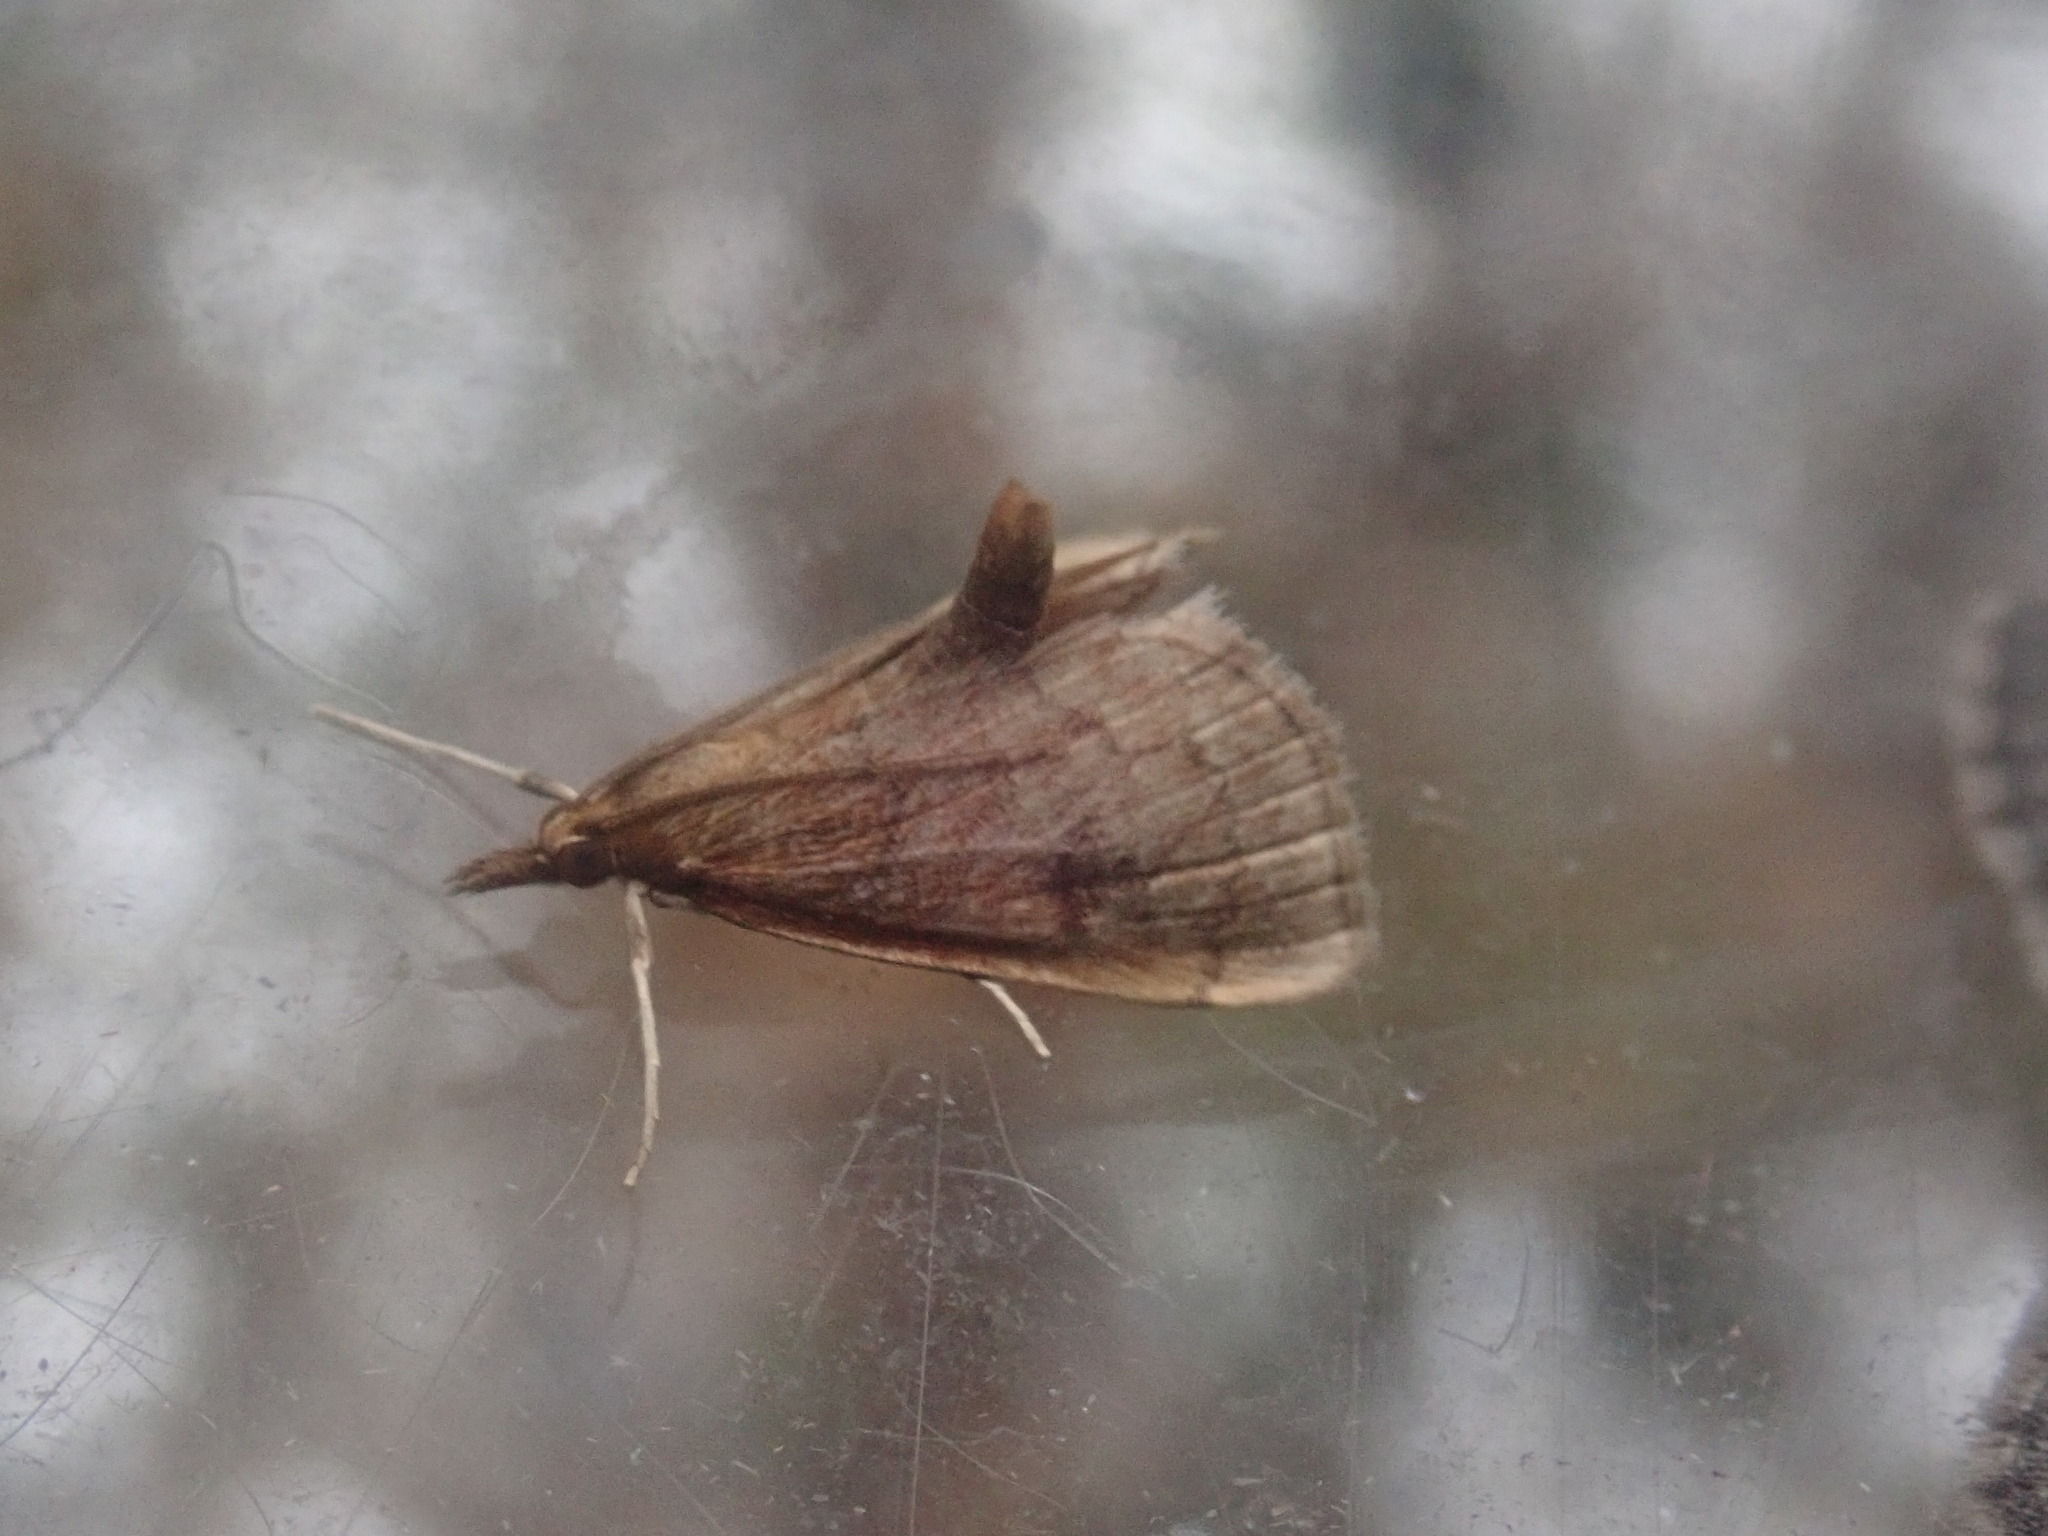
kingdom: Animalia
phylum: Arthropoda
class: Insecta
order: Lepidoptera
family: Crambidae
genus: Fumibotys
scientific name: Fumibotys fumalis
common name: Mint root borer moth
